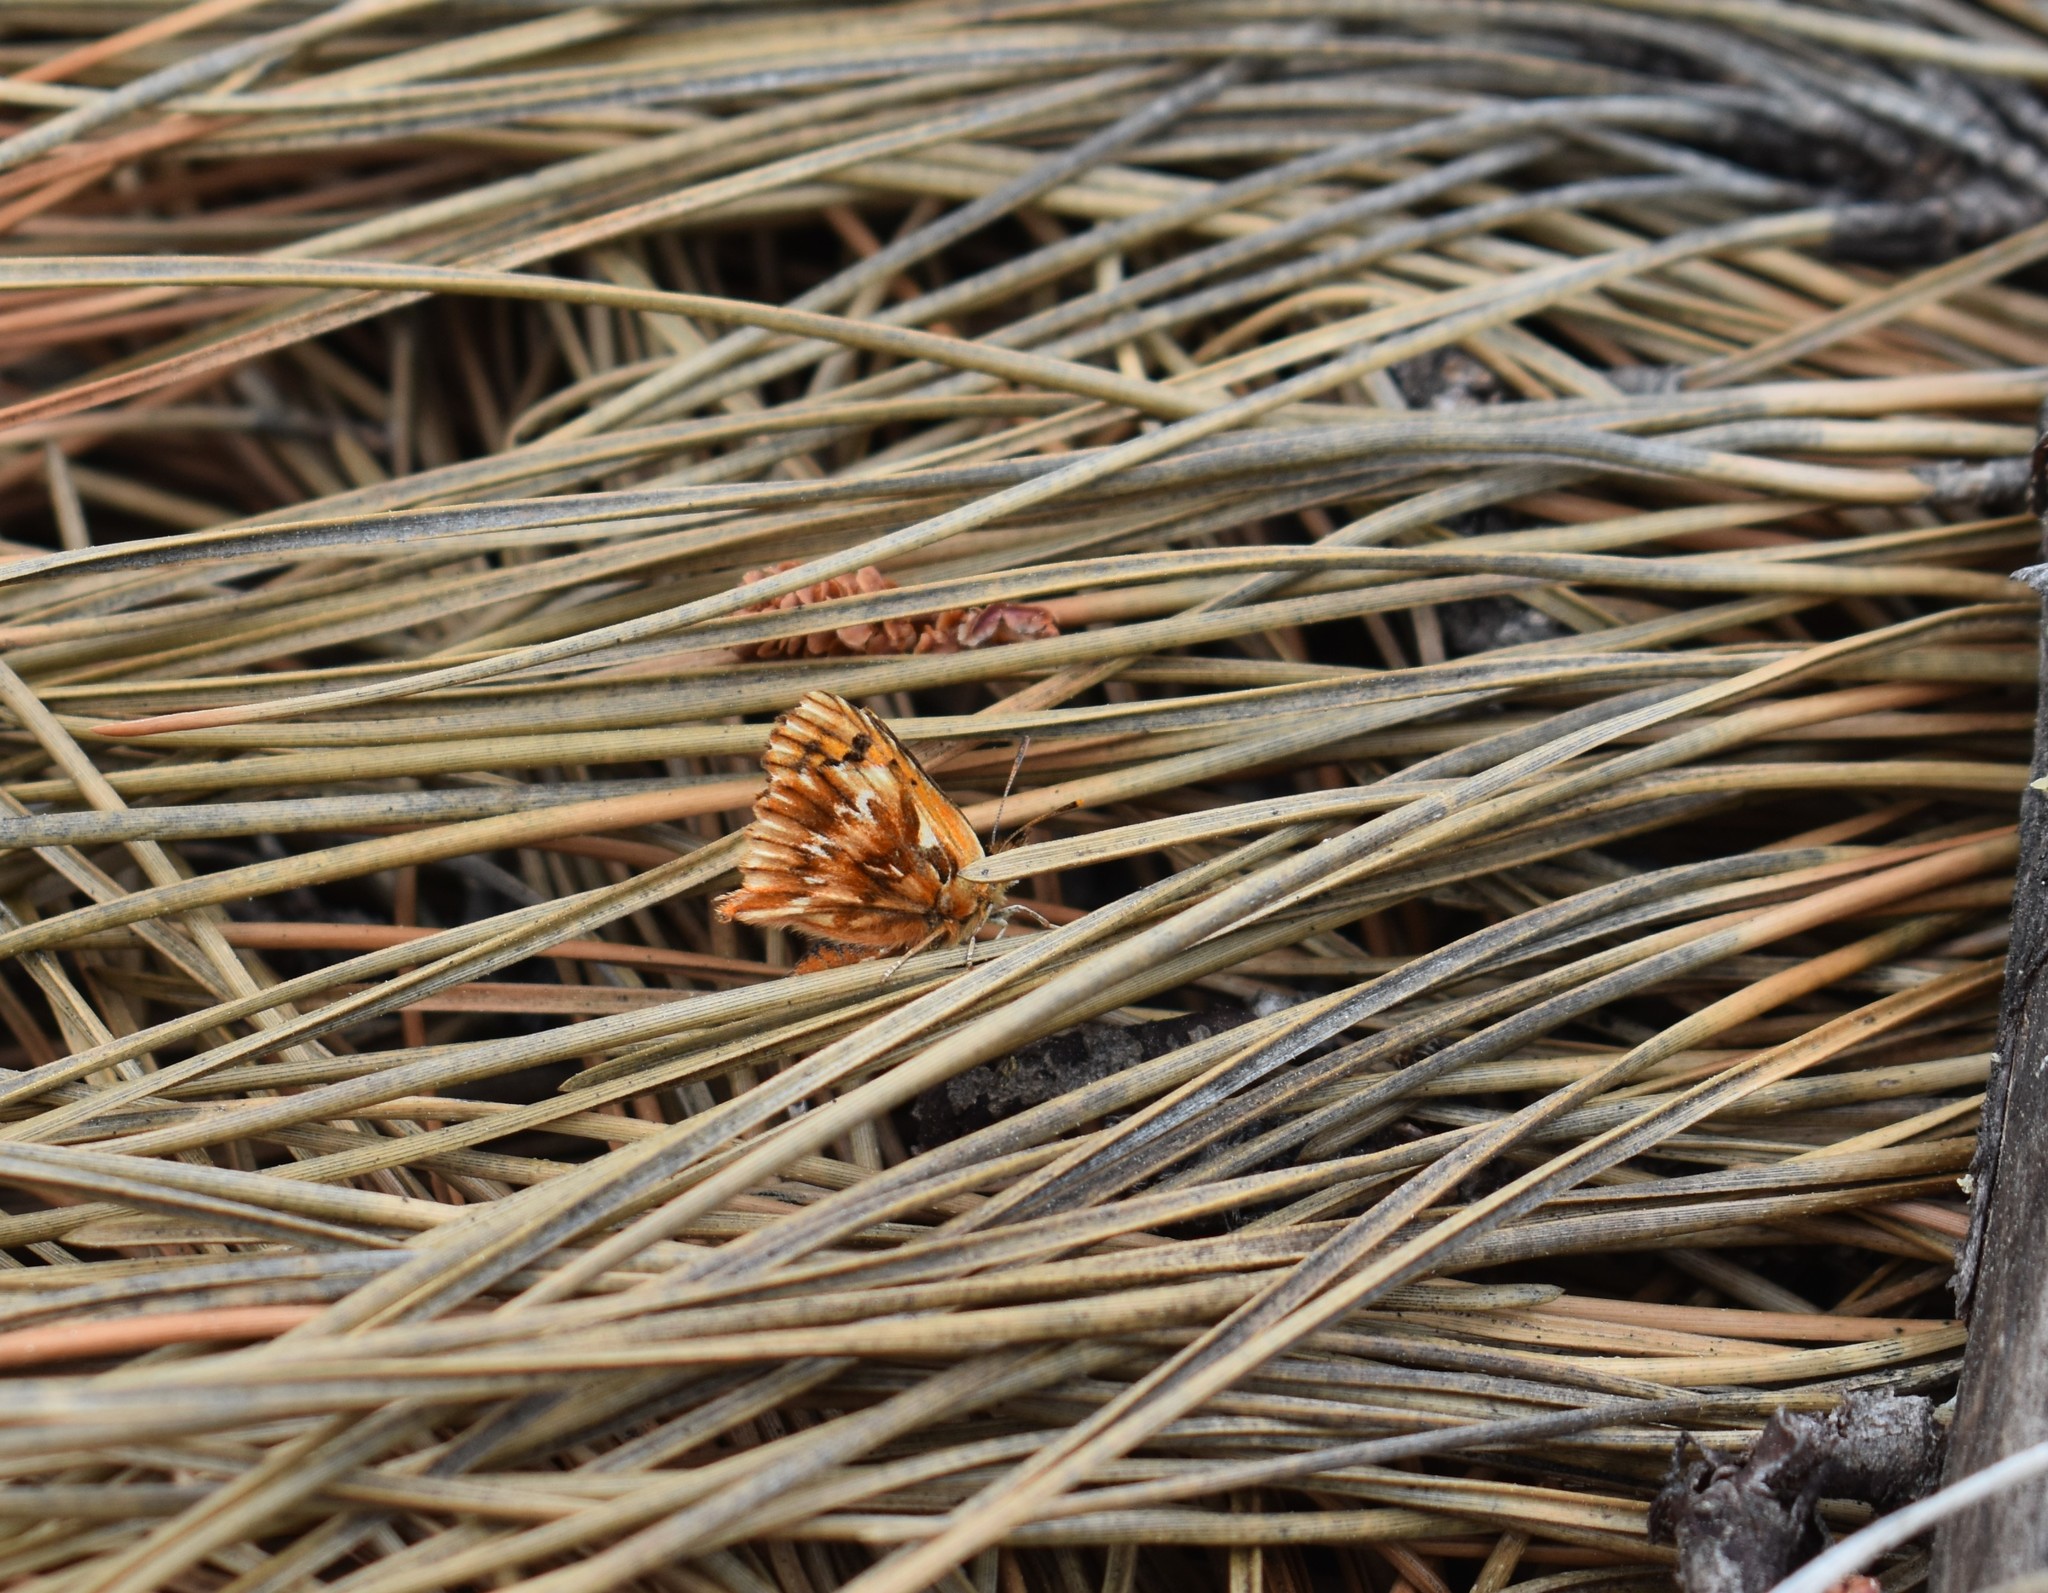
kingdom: Animalia
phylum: Arthropoda
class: Insecta
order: Lepidoptera
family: Lycaenidae
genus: Chrysoritis
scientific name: Chrysoritis
